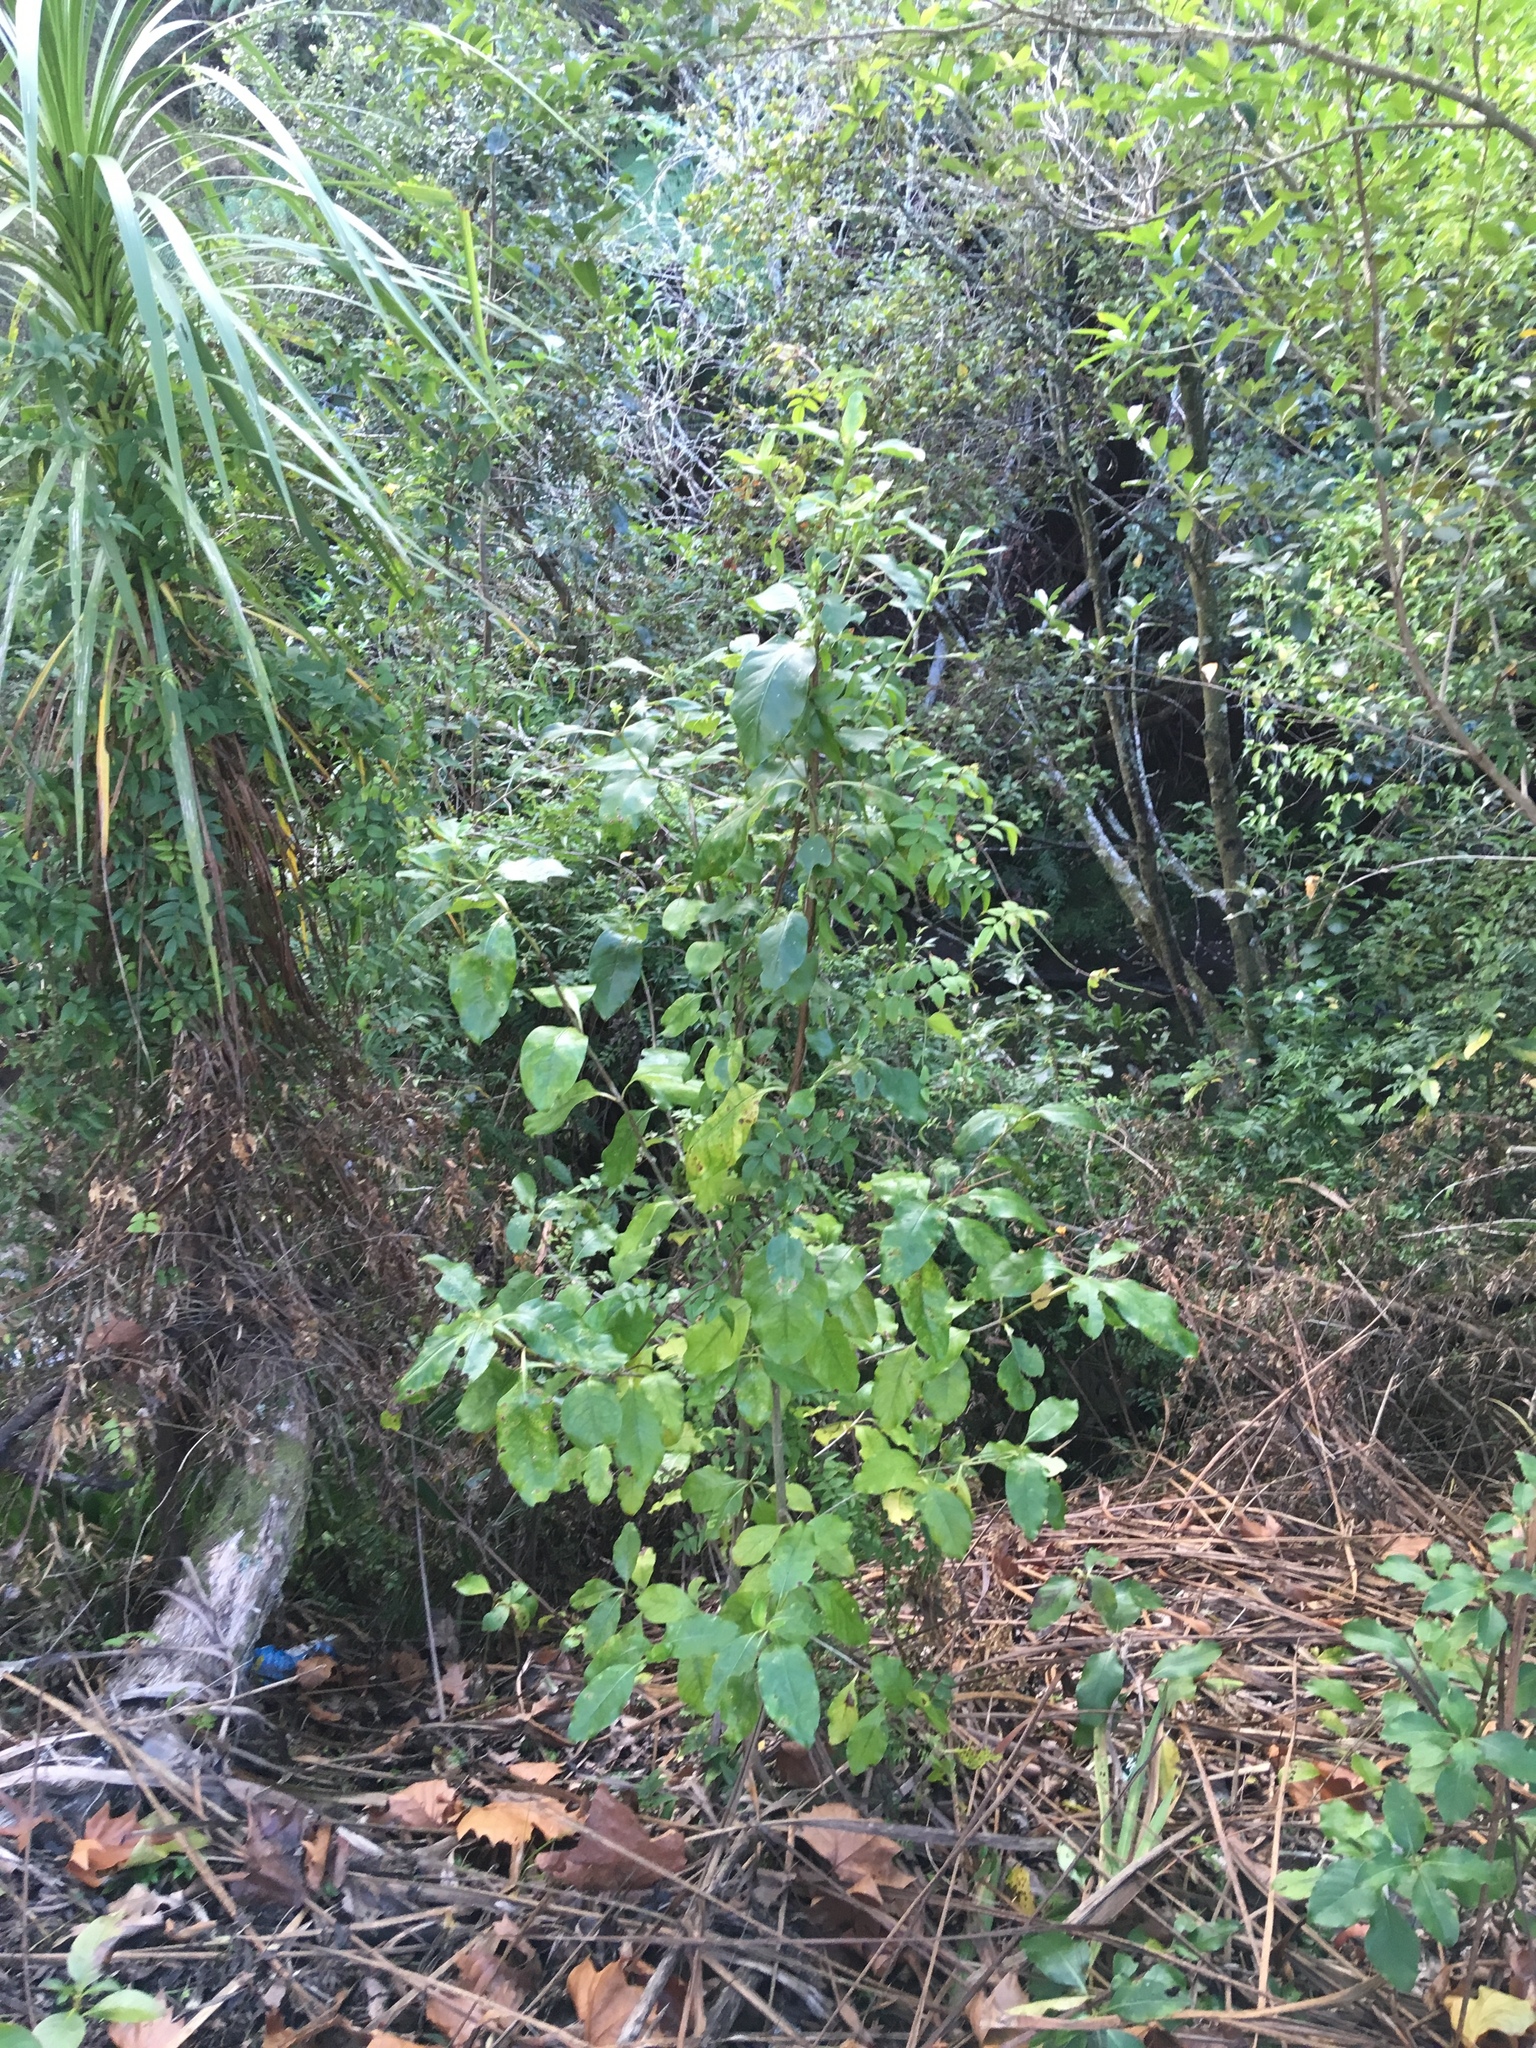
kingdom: Plantae
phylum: Tracheophyta
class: Magnoliopsida
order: Lamiales
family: Oleaceae
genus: Jasminum
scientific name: Jasminum polyanthum
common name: Pink jasmine
